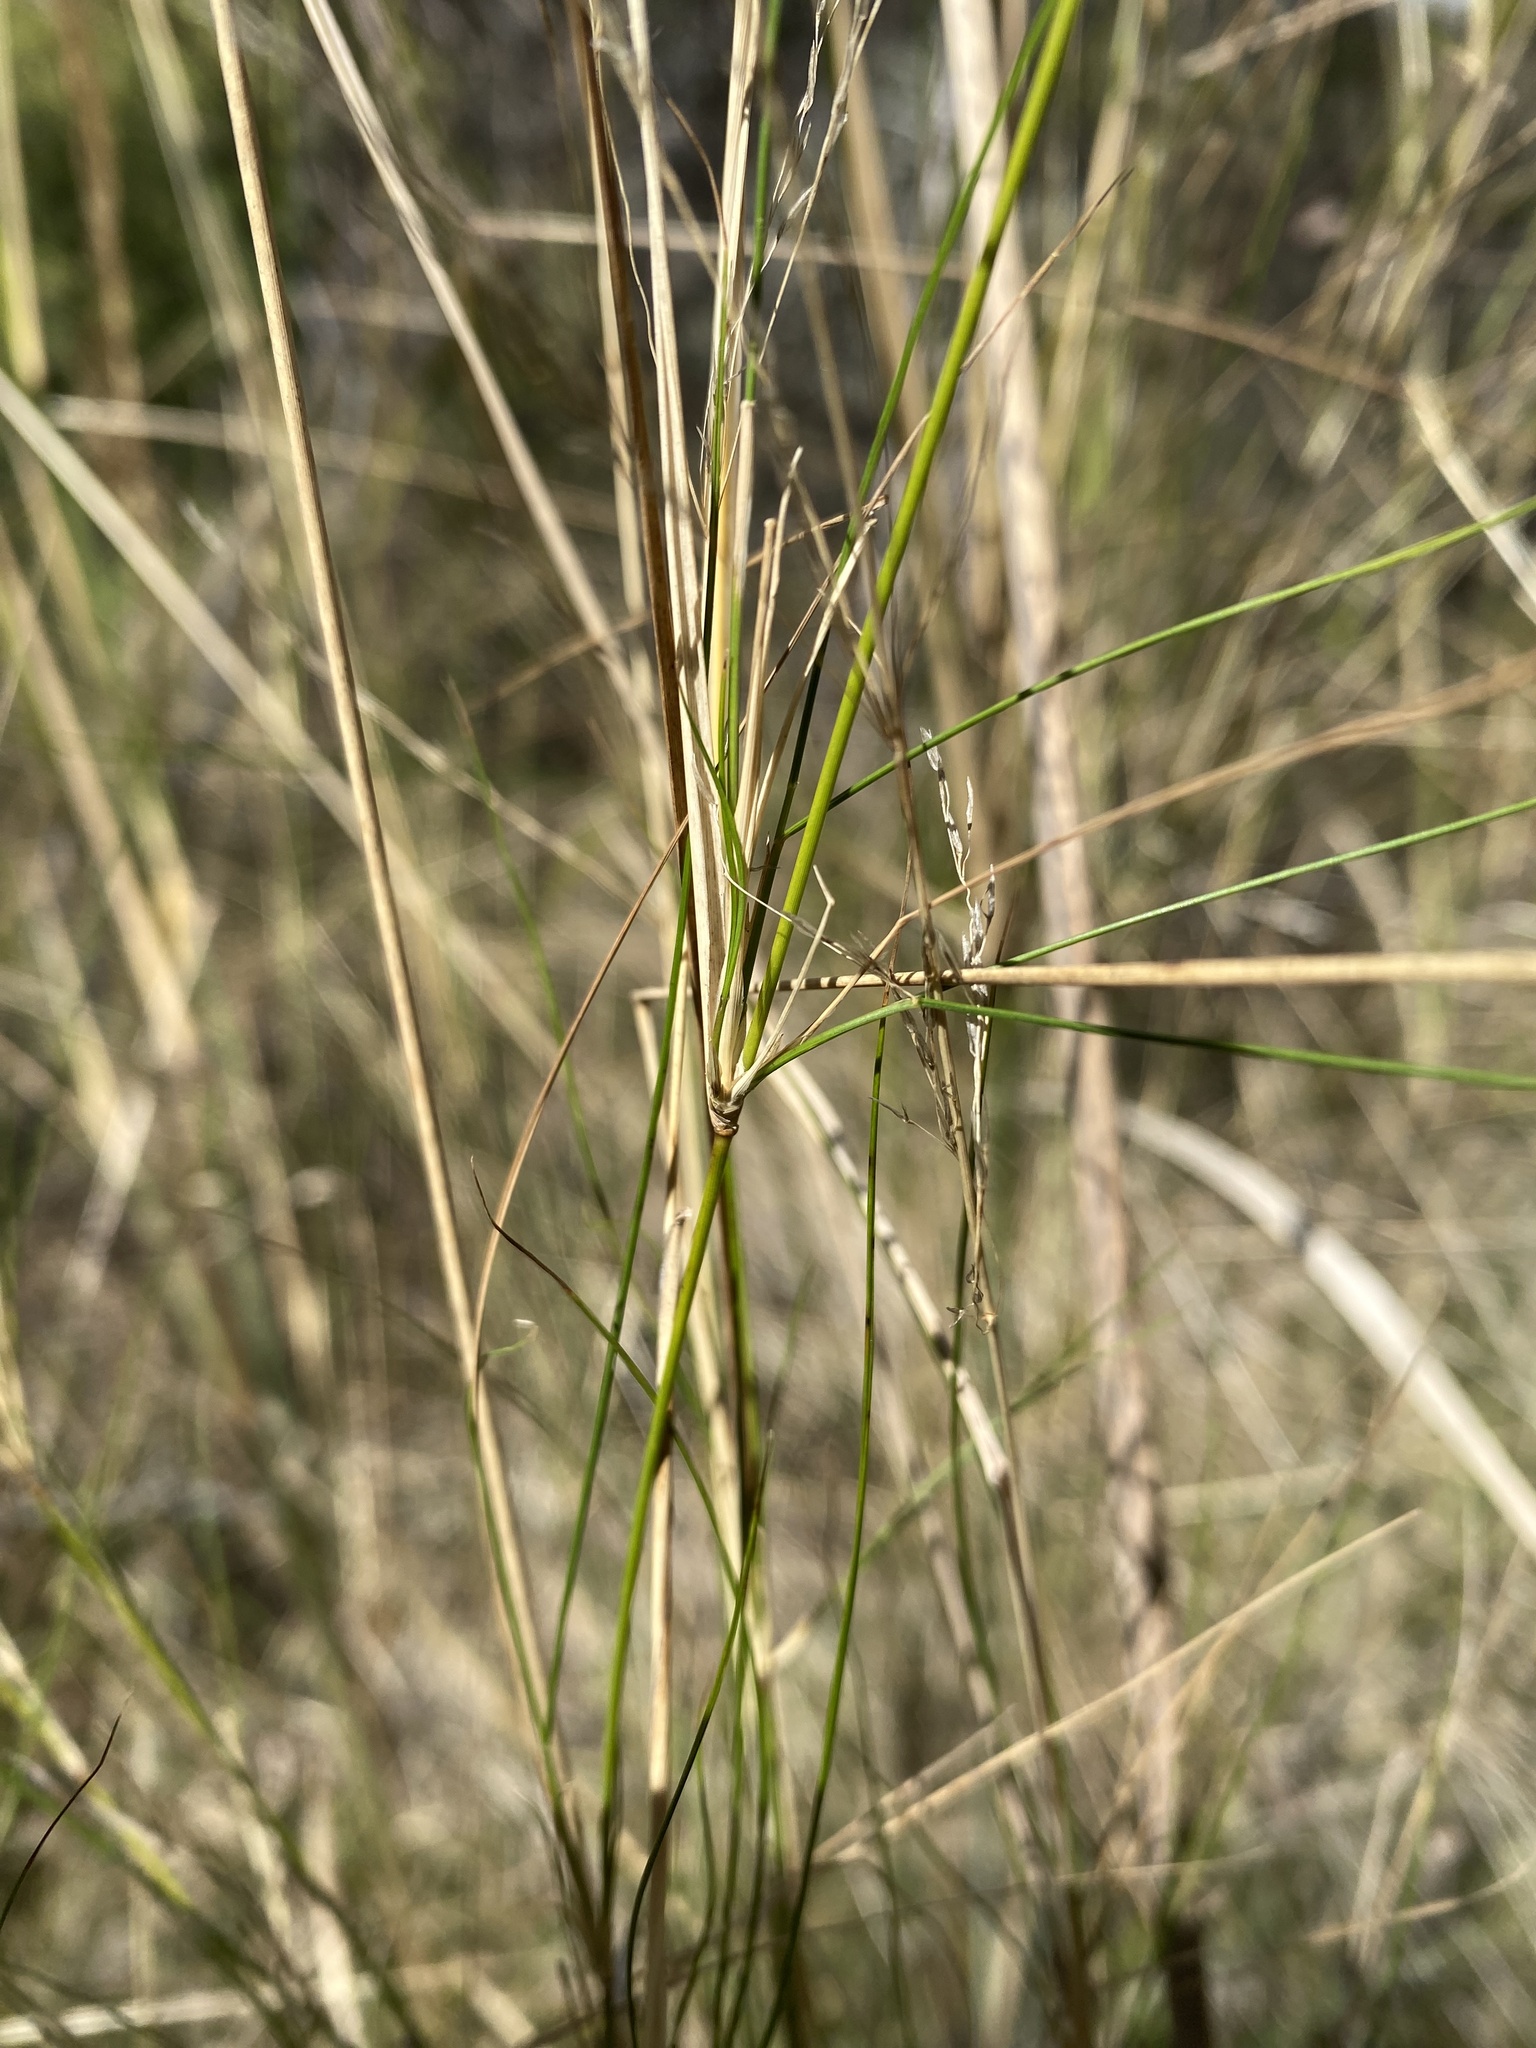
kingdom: Plantae
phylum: Tracheophyta
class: Liliopsida
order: Poales
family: Poaceae
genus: Austrostipa
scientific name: Austrostipa ramosissima
